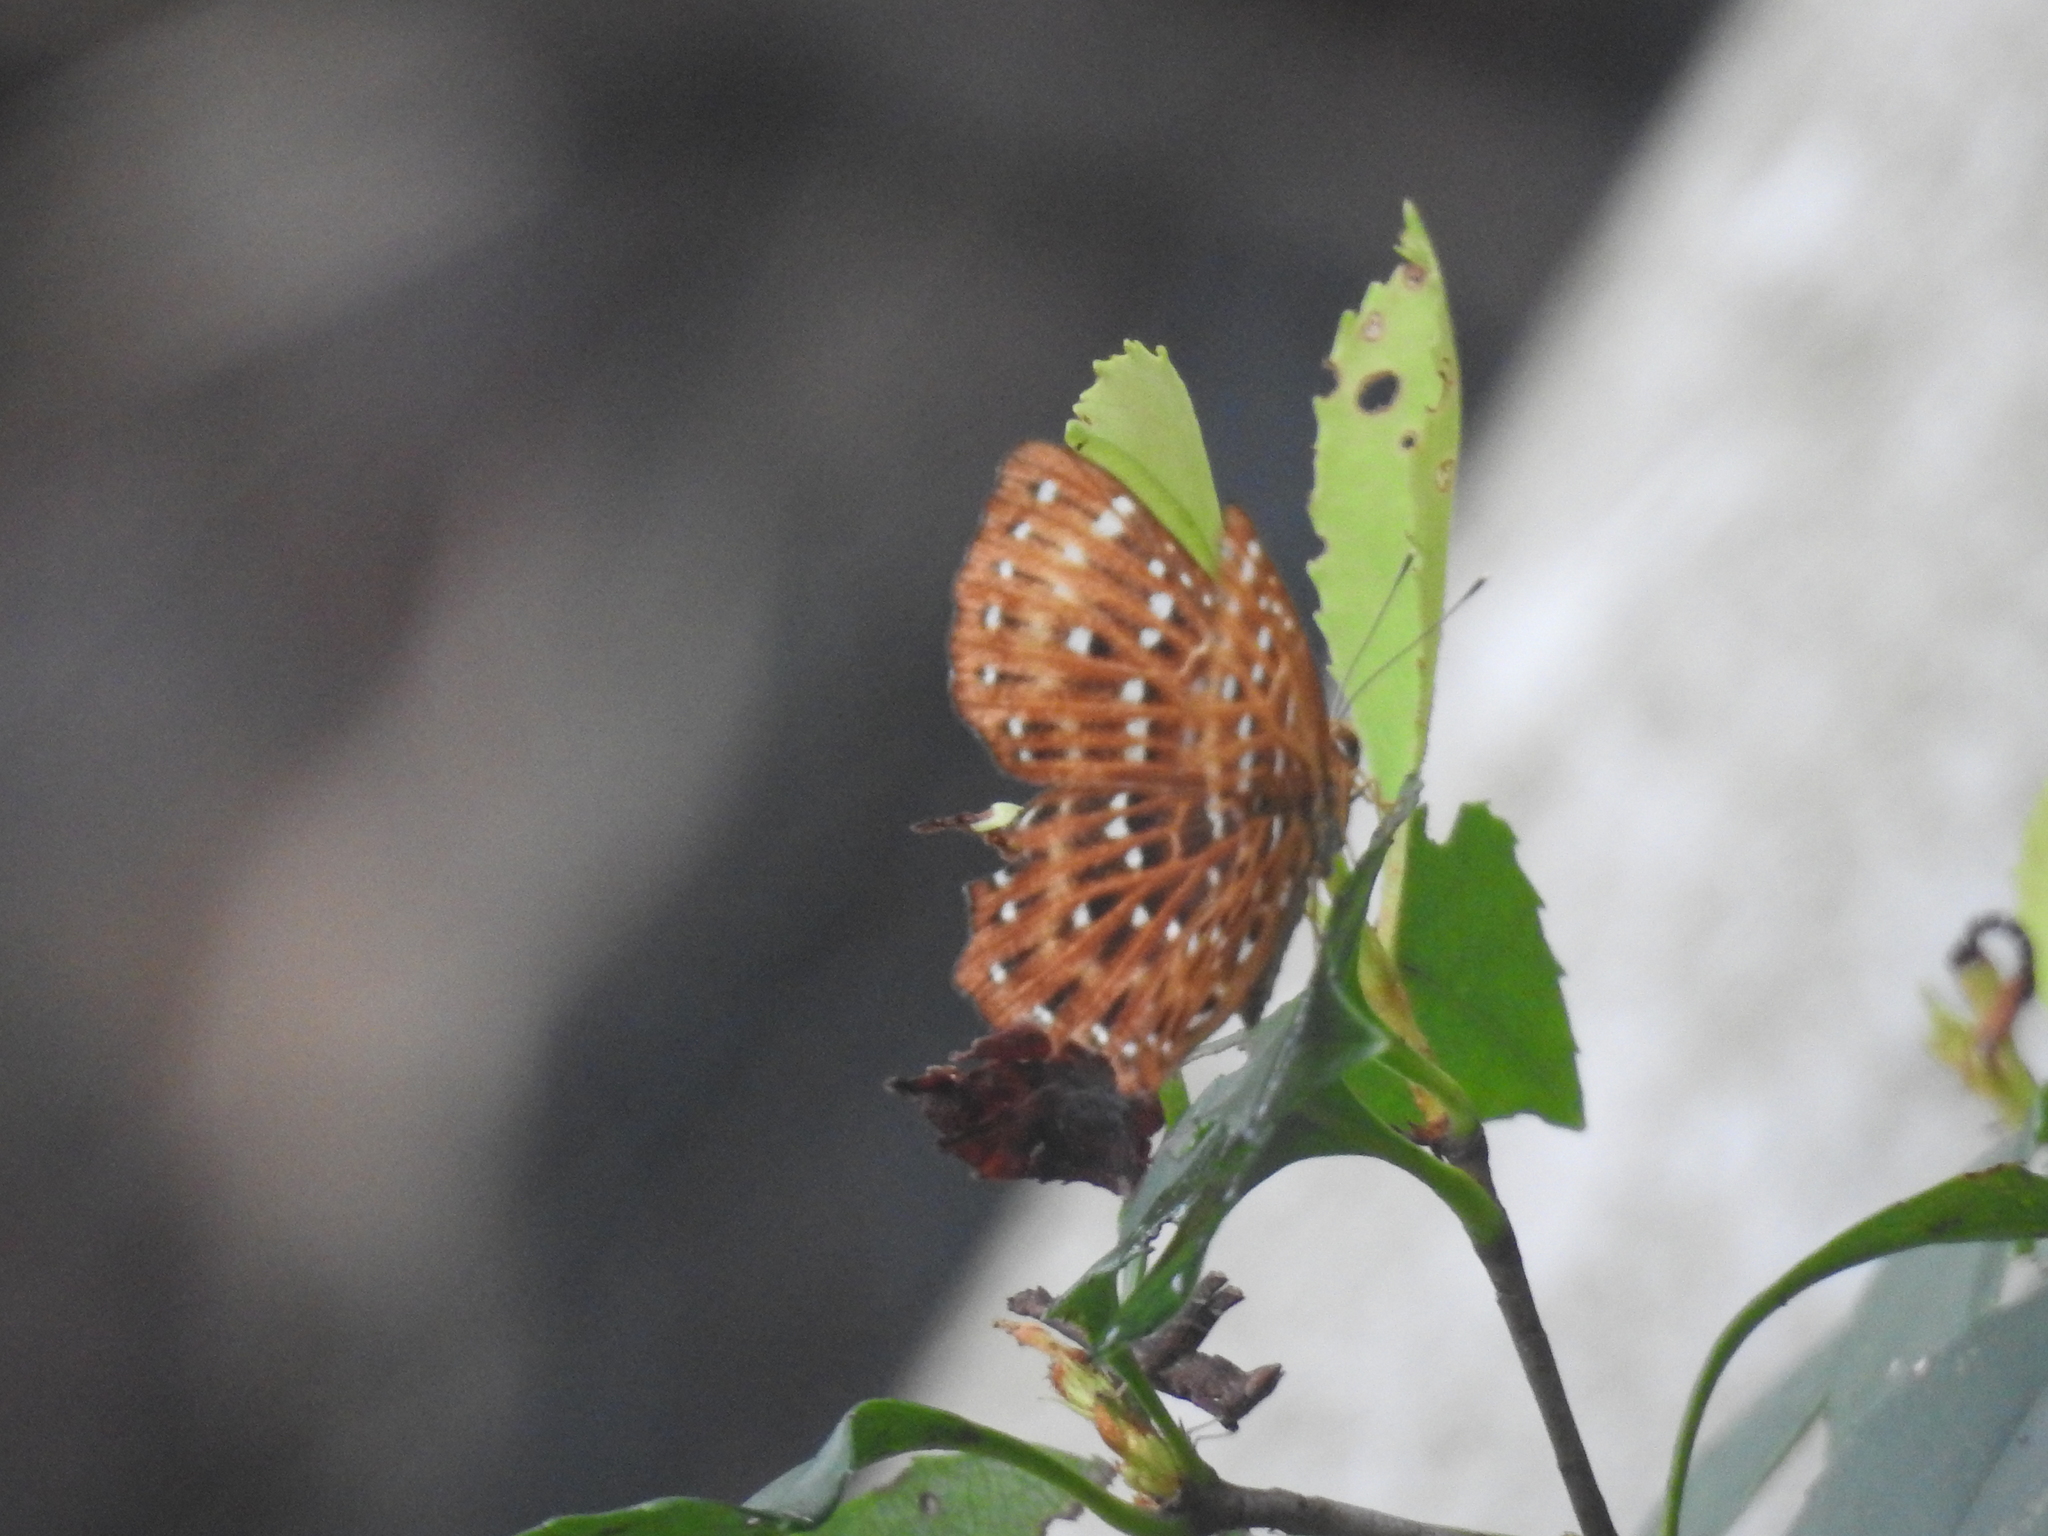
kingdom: Animalia
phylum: Arthropoda
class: Insecta
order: Lepidoptera
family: Riodinidae
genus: Zemeros
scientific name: Zemeros flegyas
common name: Punchinello
